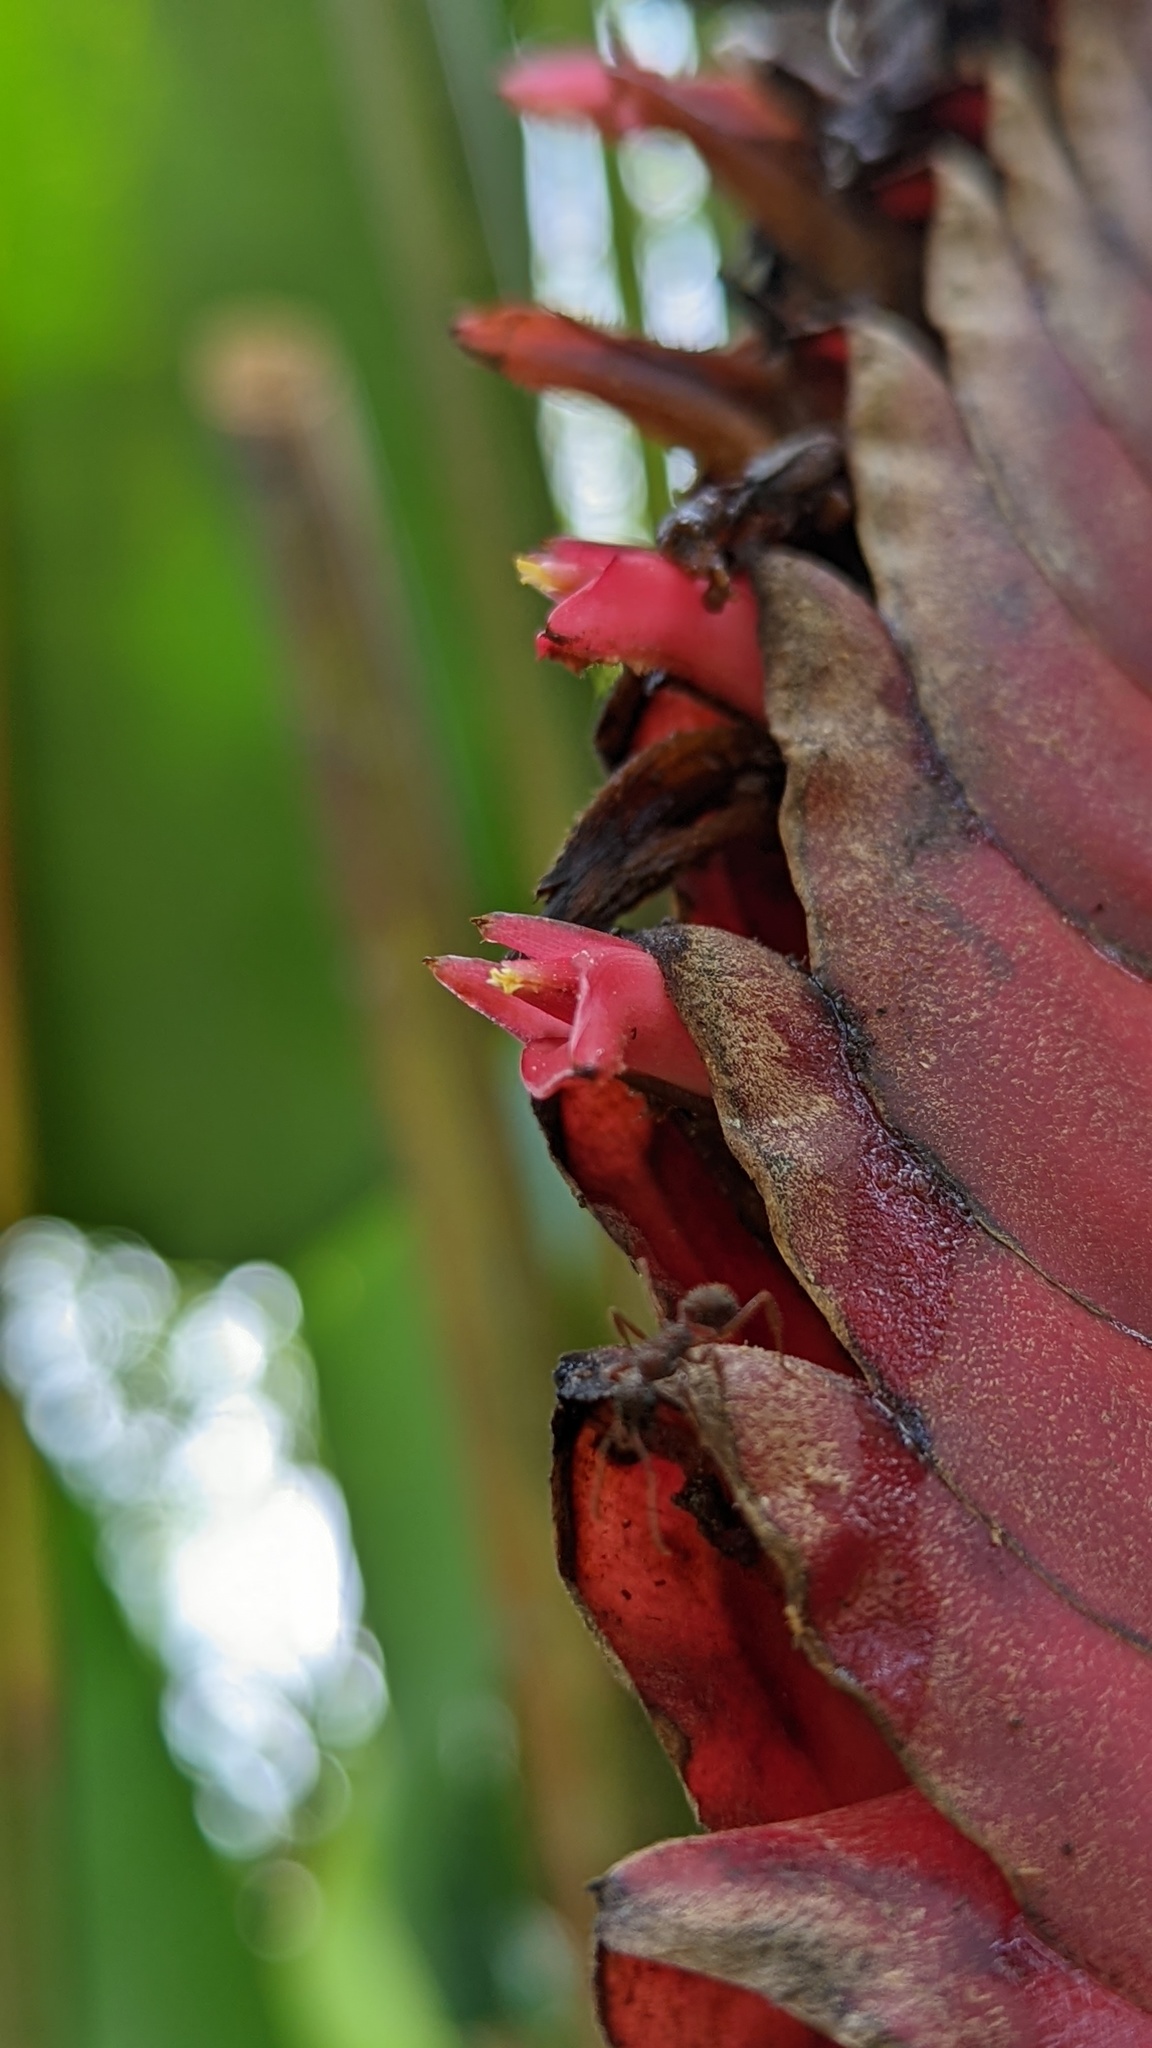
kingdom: Plantae
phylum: Tracheophyta
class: Liliopsida
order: Zingiberales
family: Heliconiaceae
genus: Heliconia
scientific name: Heliconia mariae
